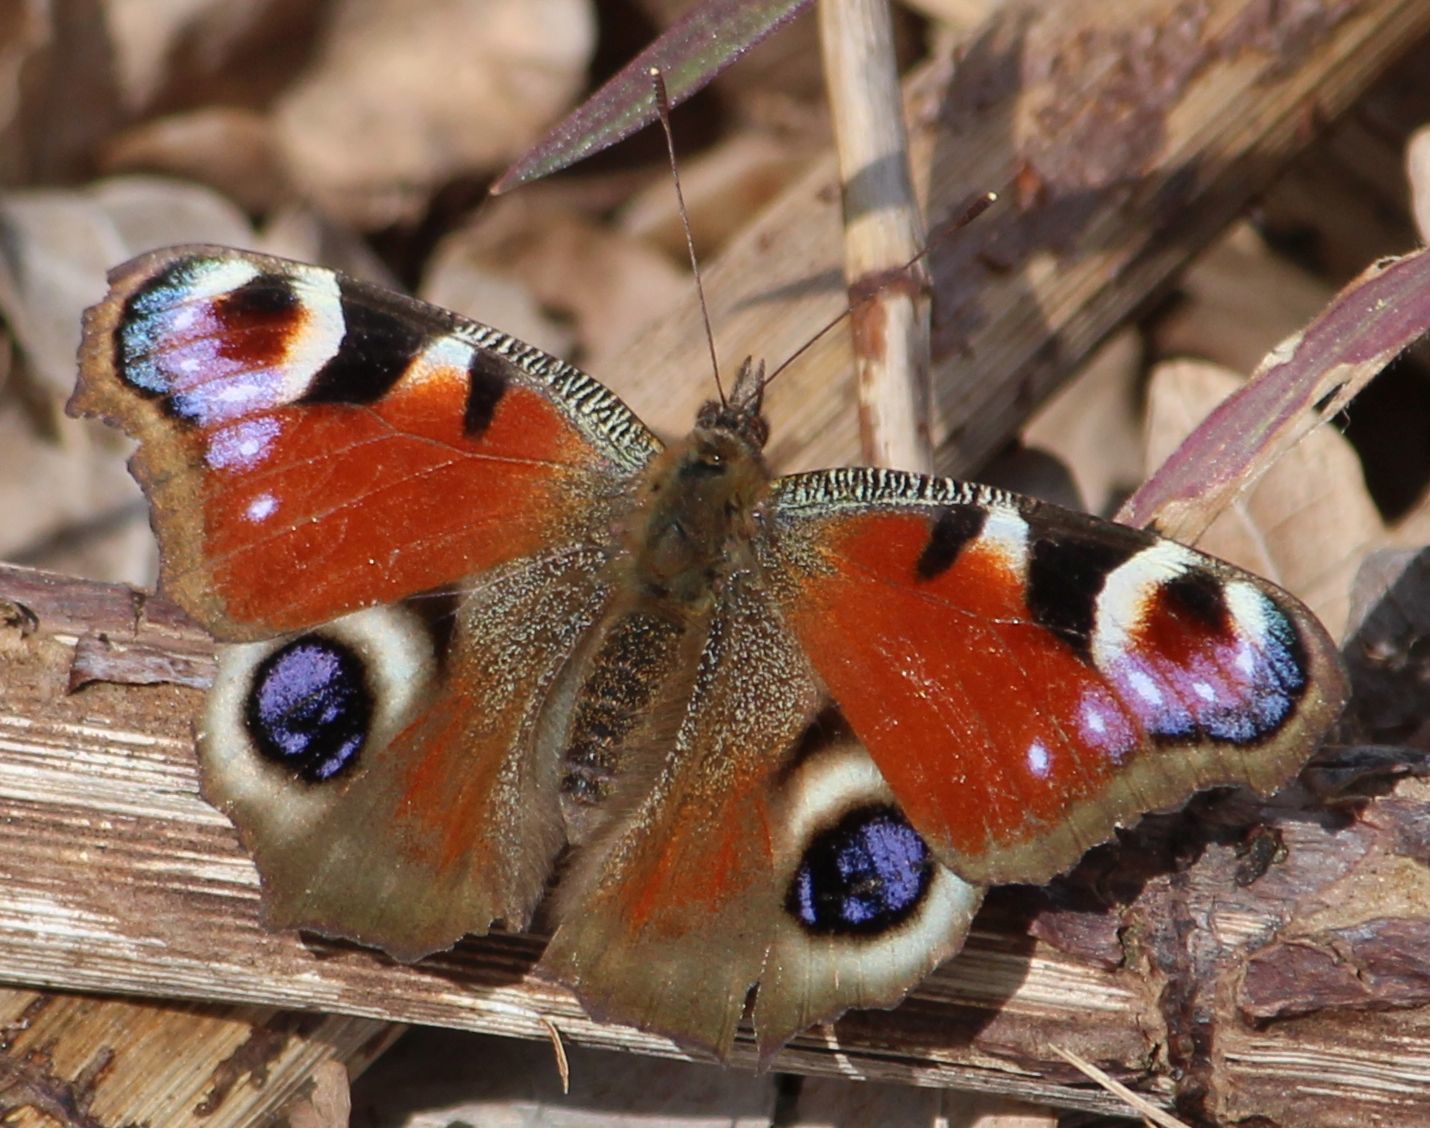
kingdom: Animalia
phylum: Arthropoda
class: Insecta
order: Lepidoptera
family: Nymphalidae
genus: Aglais
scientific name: Aglais io
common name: Peacock
